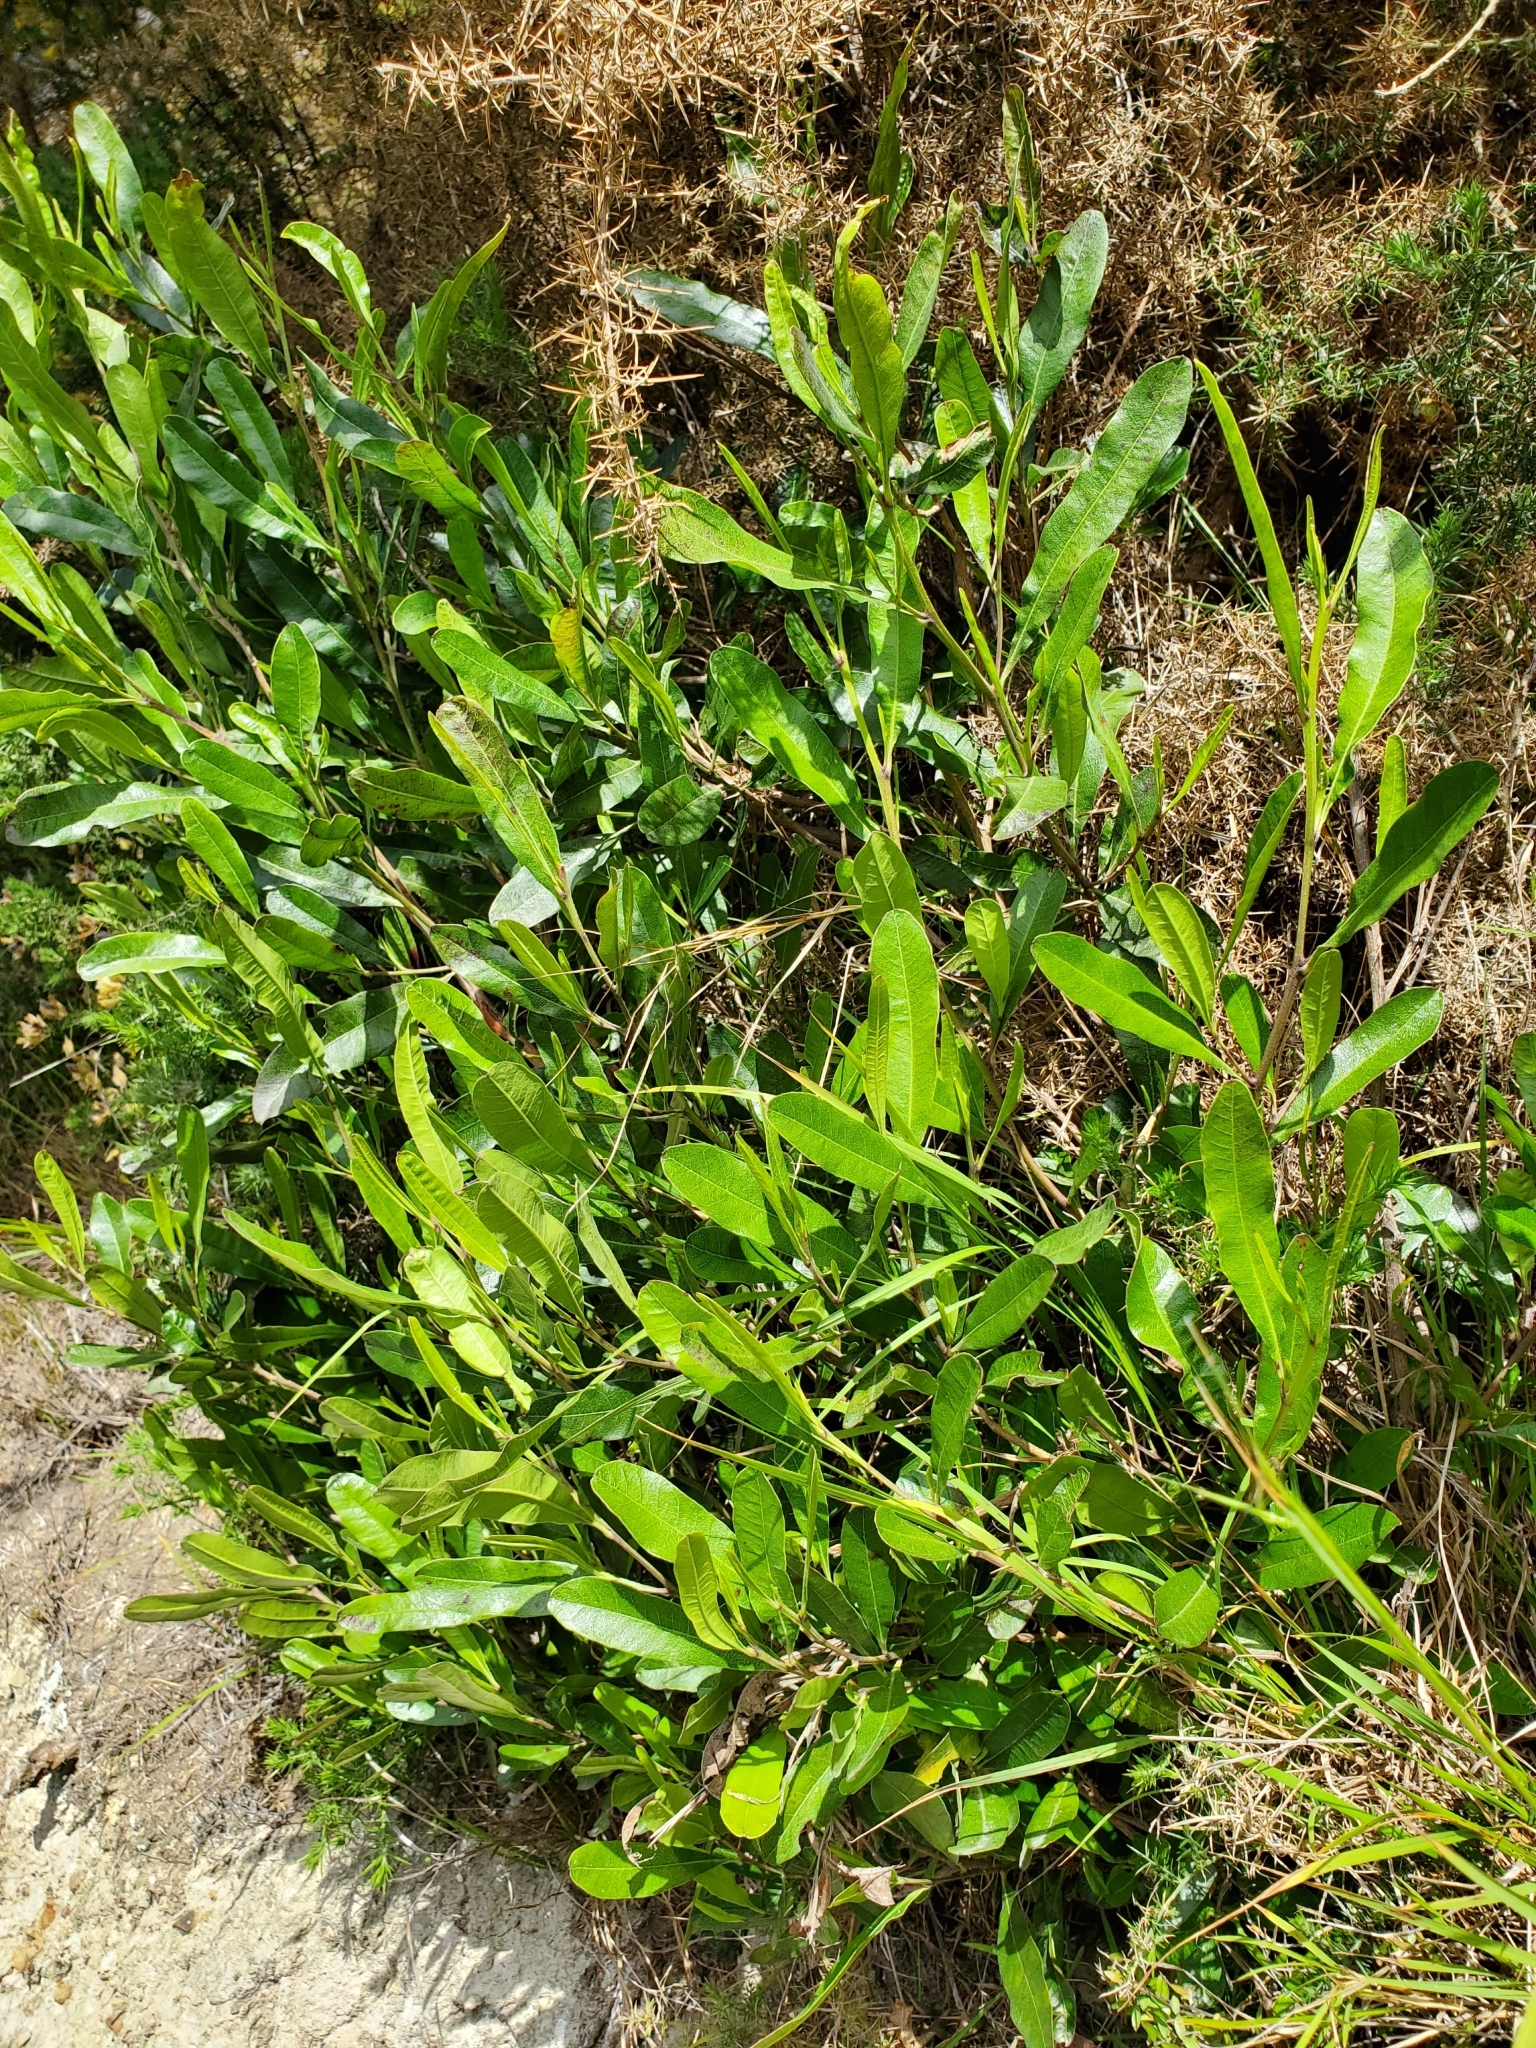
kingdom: Plantae
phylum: Tracheophyta
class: Magnoliopsida
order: Sapindales
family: Sapindaceae
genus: Dodonaea
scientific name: Dodonaea viscosa
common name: Hopbush
